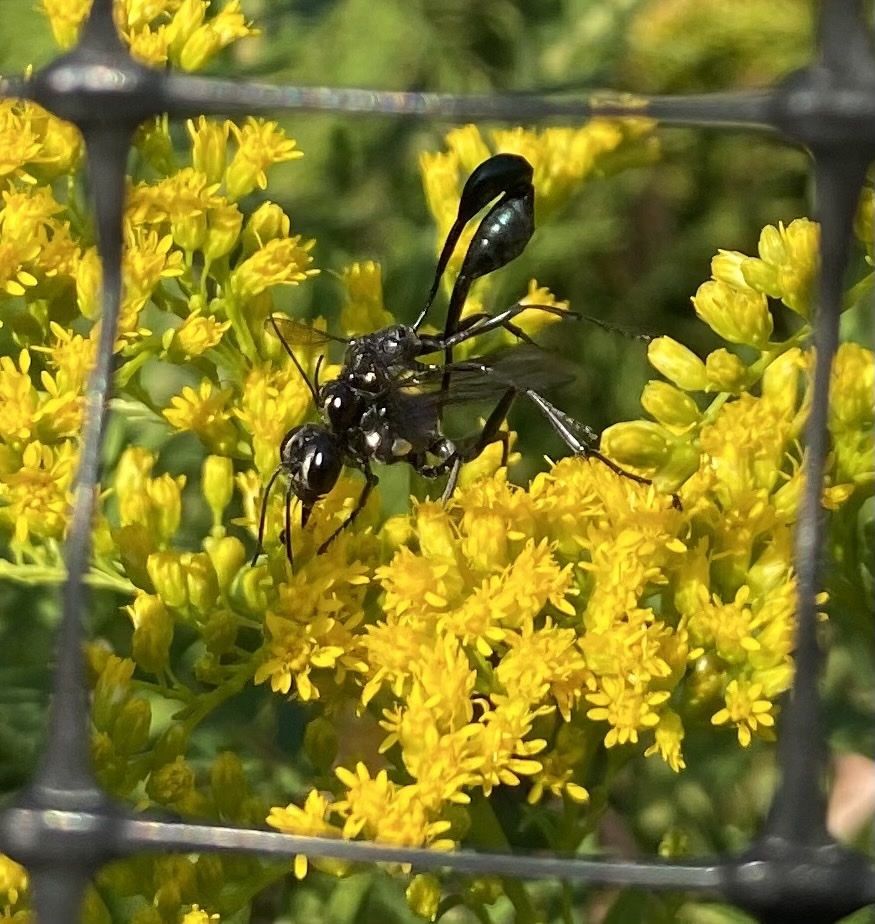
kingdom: Animalia
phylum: Arthropoda
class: Insecta
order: Hymenoptera
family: Sphecidae
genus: Eremnophila
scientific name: Eremnophila aureonotata
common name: Gold-marked thread-waisted wasp
